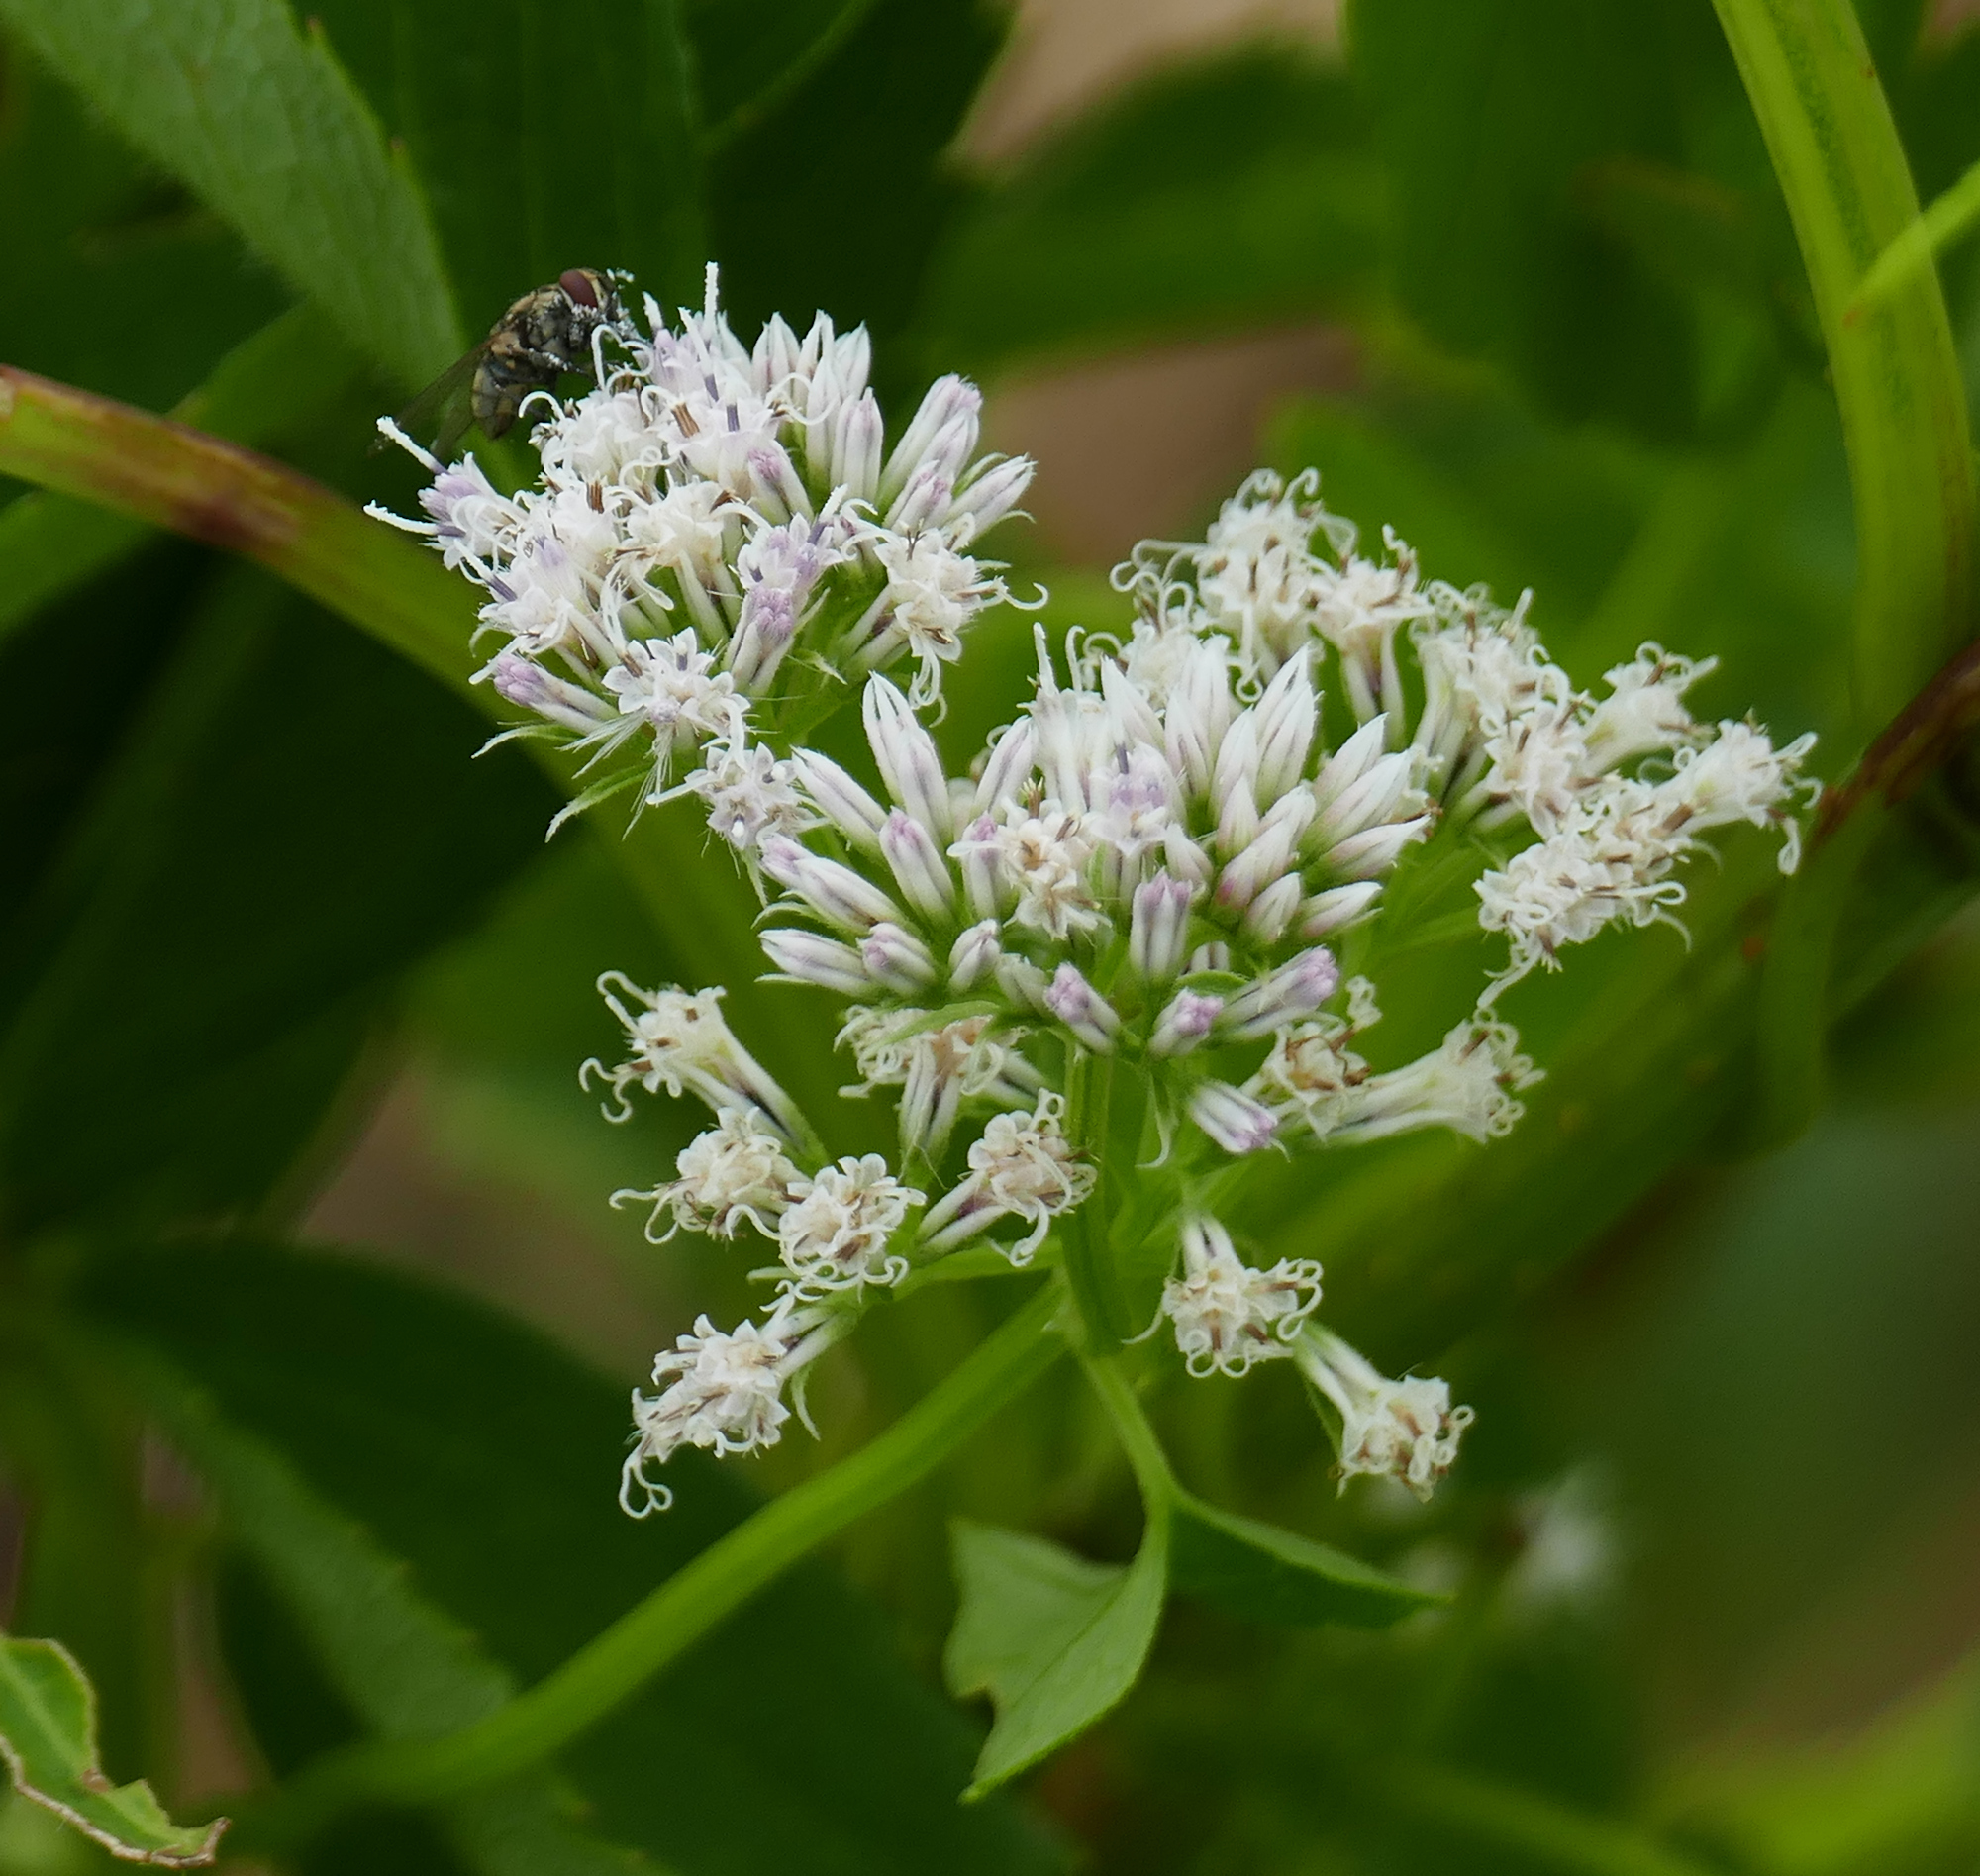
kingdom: Plantae
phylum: Tracheophyta
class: Magnoliopsida
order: Asterales
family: Asteraceae
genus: Mikania
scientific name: Mikania scandens
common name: Climbing hempvine
